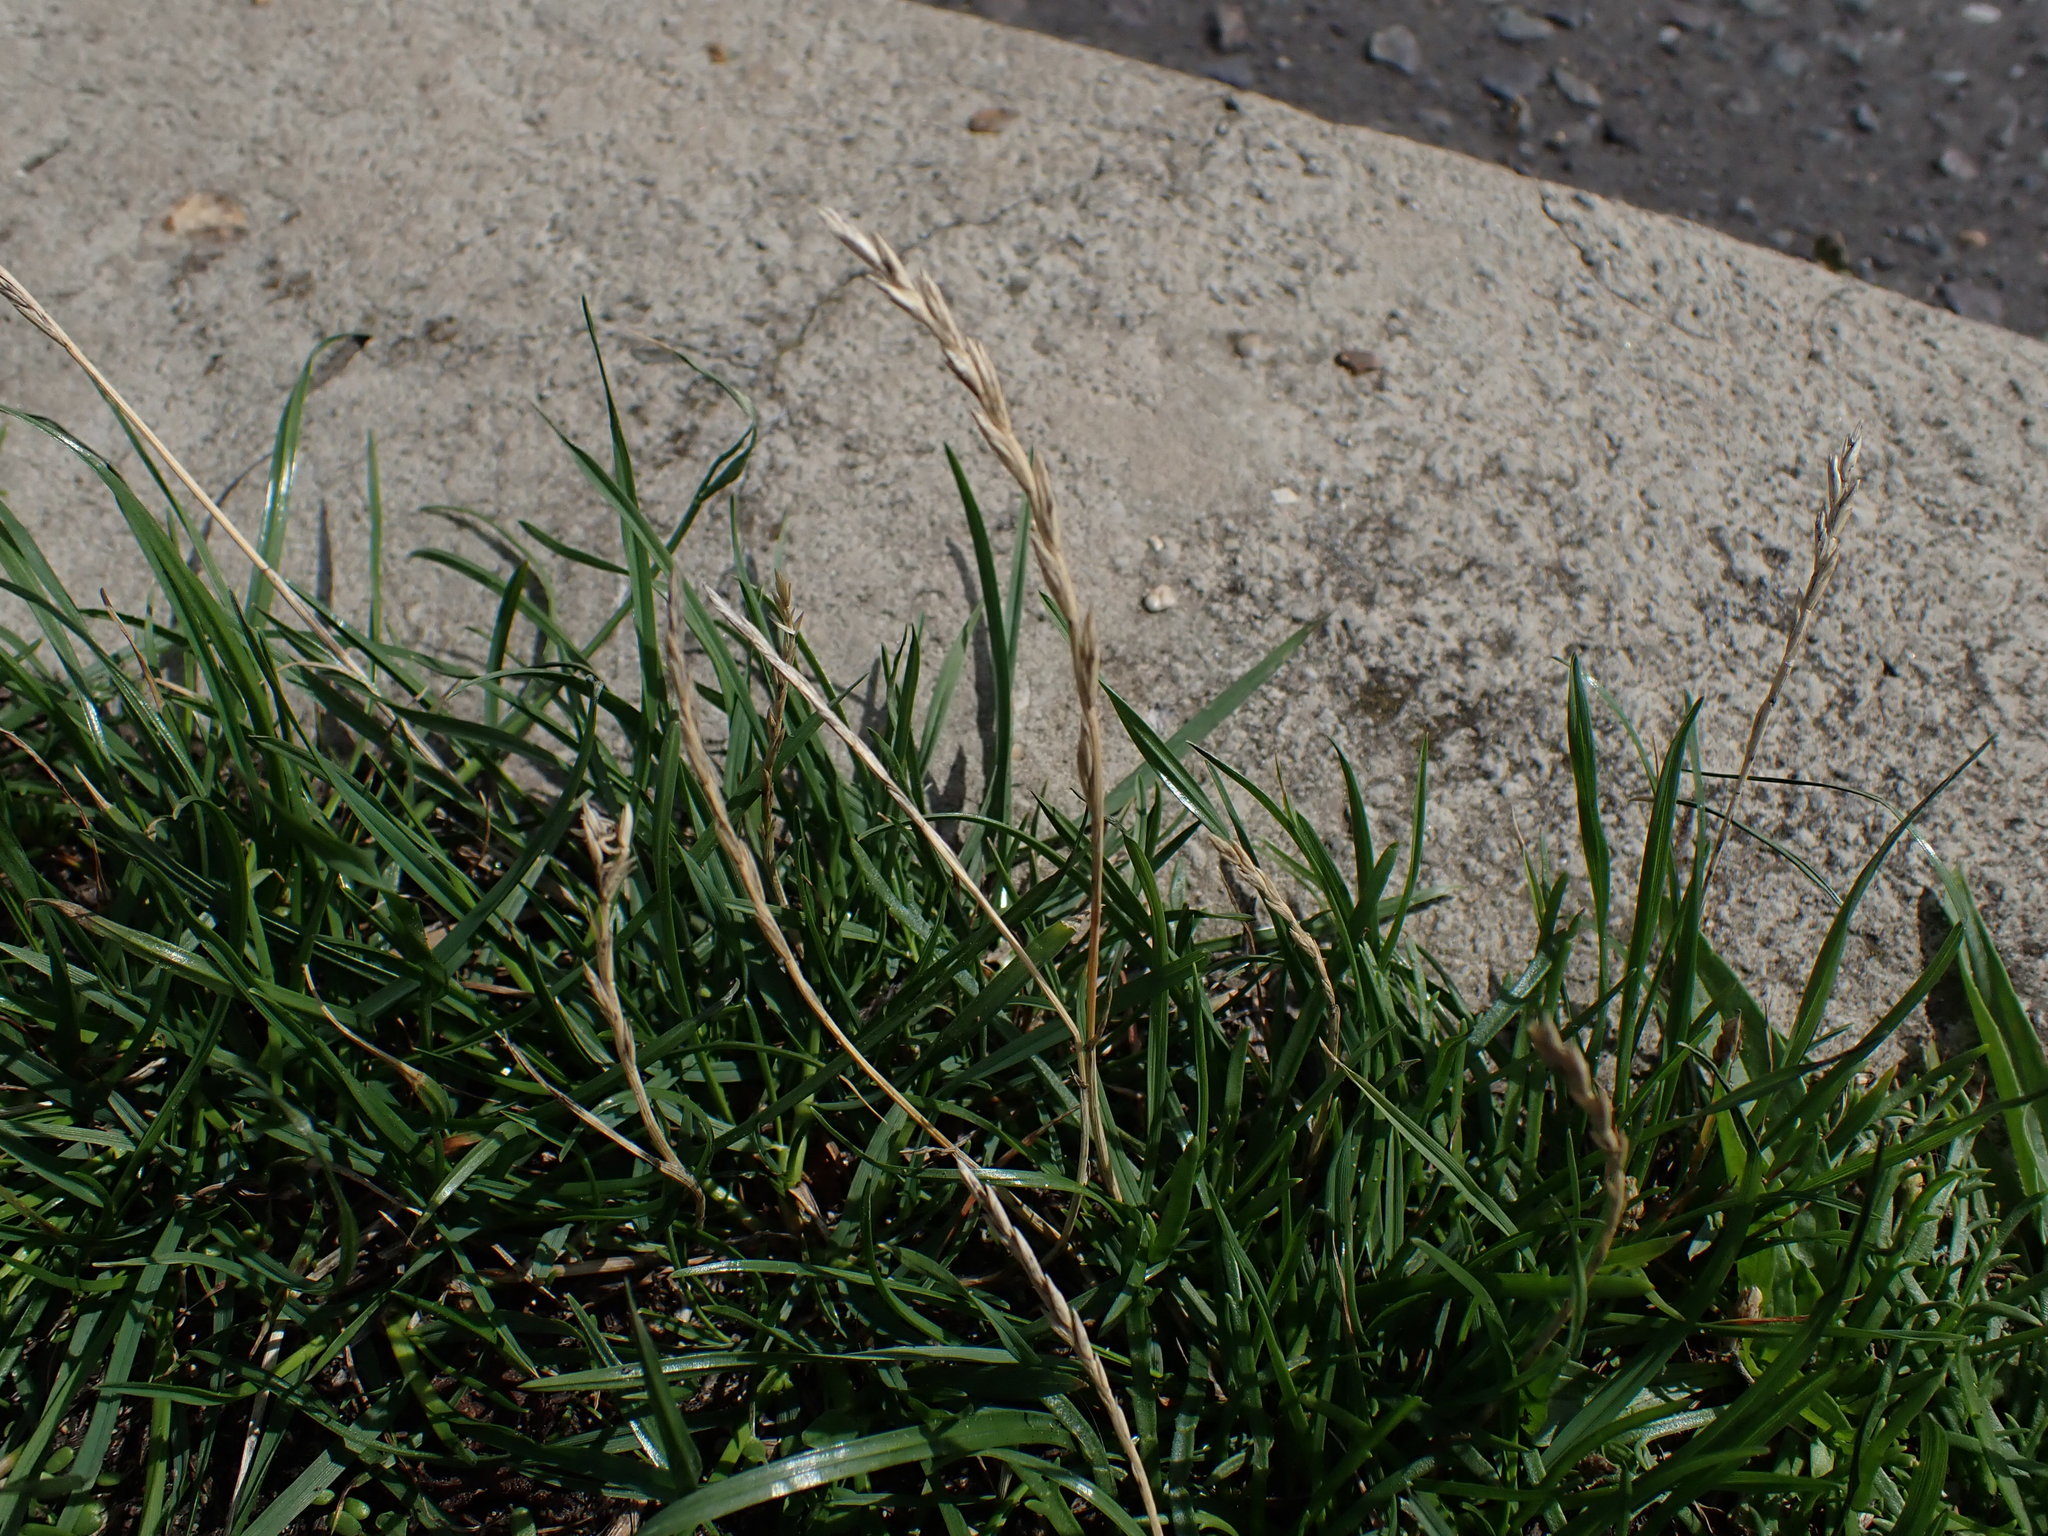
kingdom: Plantae
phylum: Tracheophyta
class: Liliopsida
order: Poales
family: Poaceae
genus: Lolium
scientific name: Lolium perenne
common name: Perennial ryegrass
